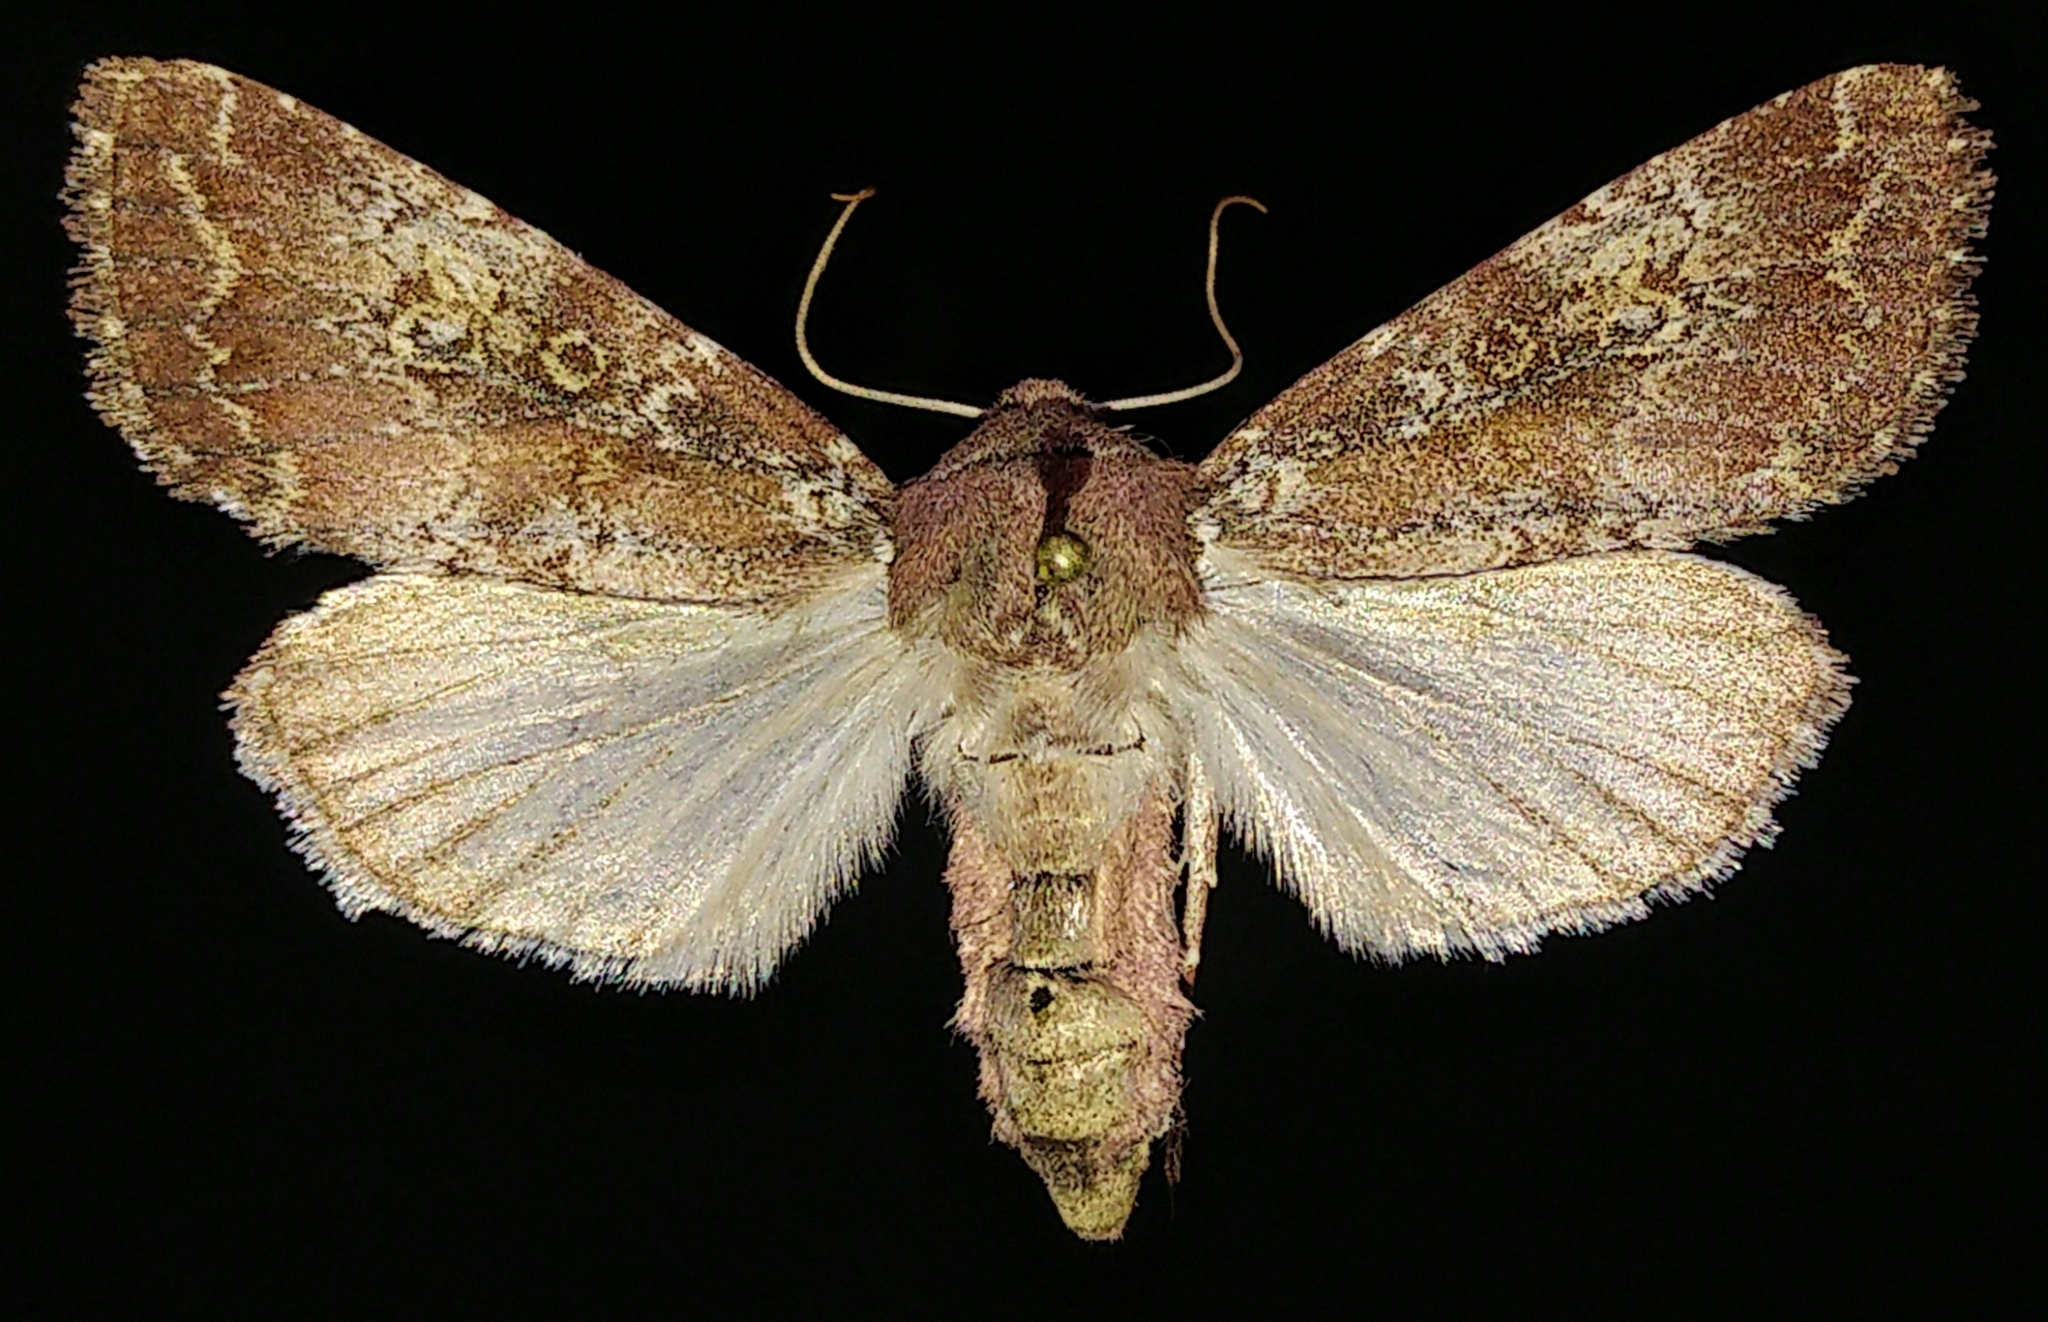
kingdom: Animalia
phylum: Arthropoda
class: Insecta
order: Lepidoptera
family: Noctuidae
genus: Sideridis
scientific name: Sideridis artesta
